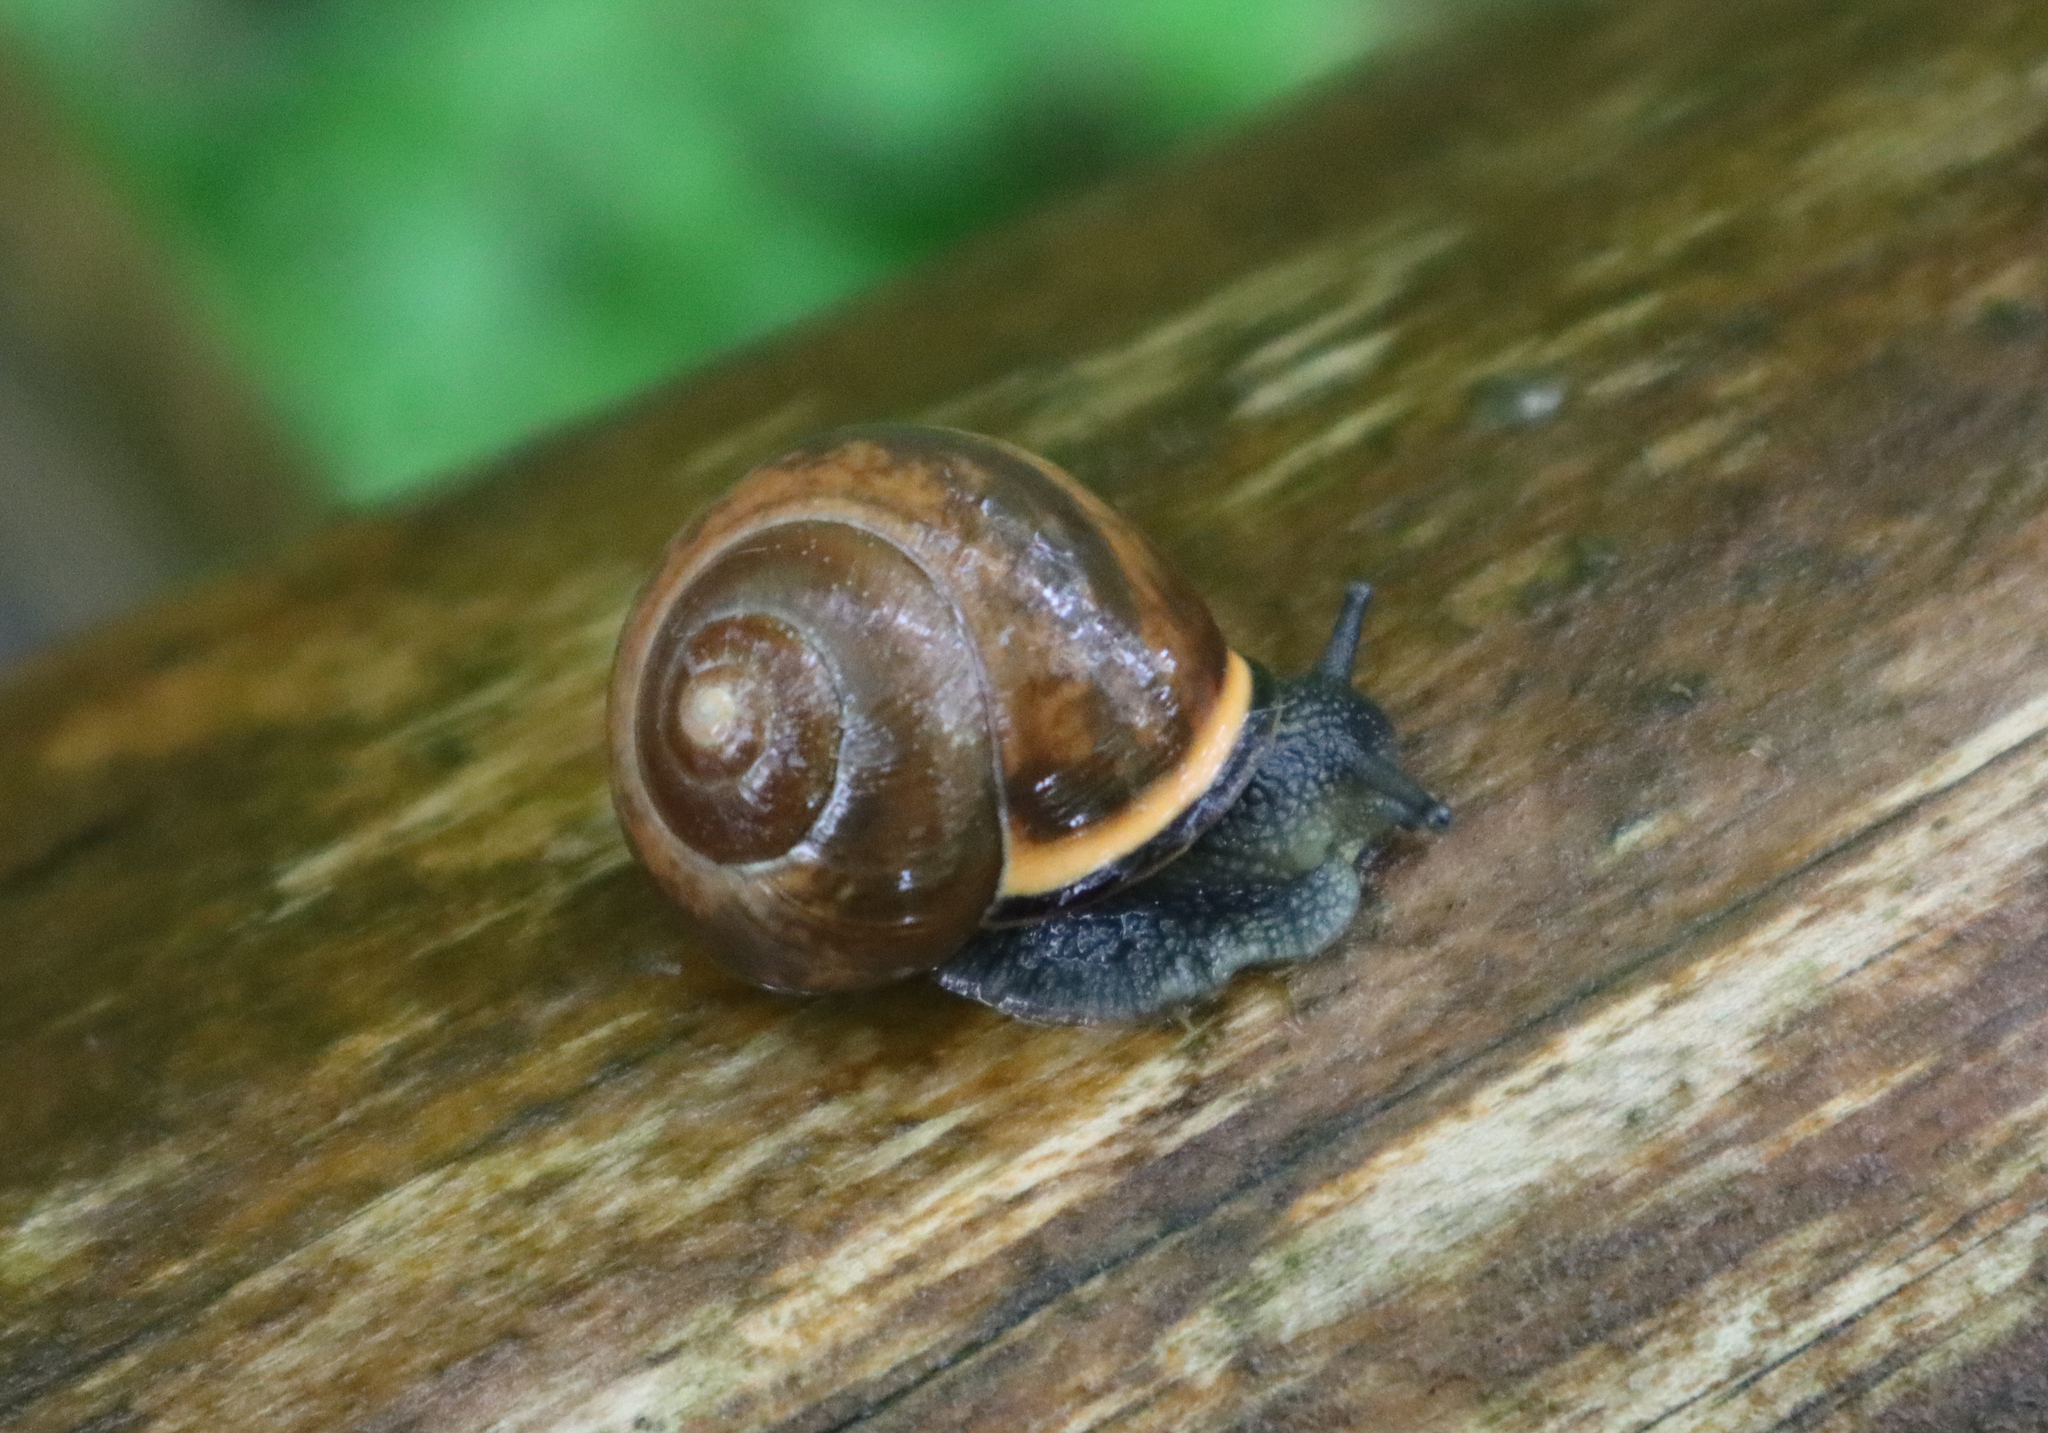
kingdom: Animalia
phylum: Mollusca
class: Gastropoda
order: Stylommatophora
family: Helicidae
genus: Cepaea
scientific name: Cepaea nemoralis
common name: Grovesnail
